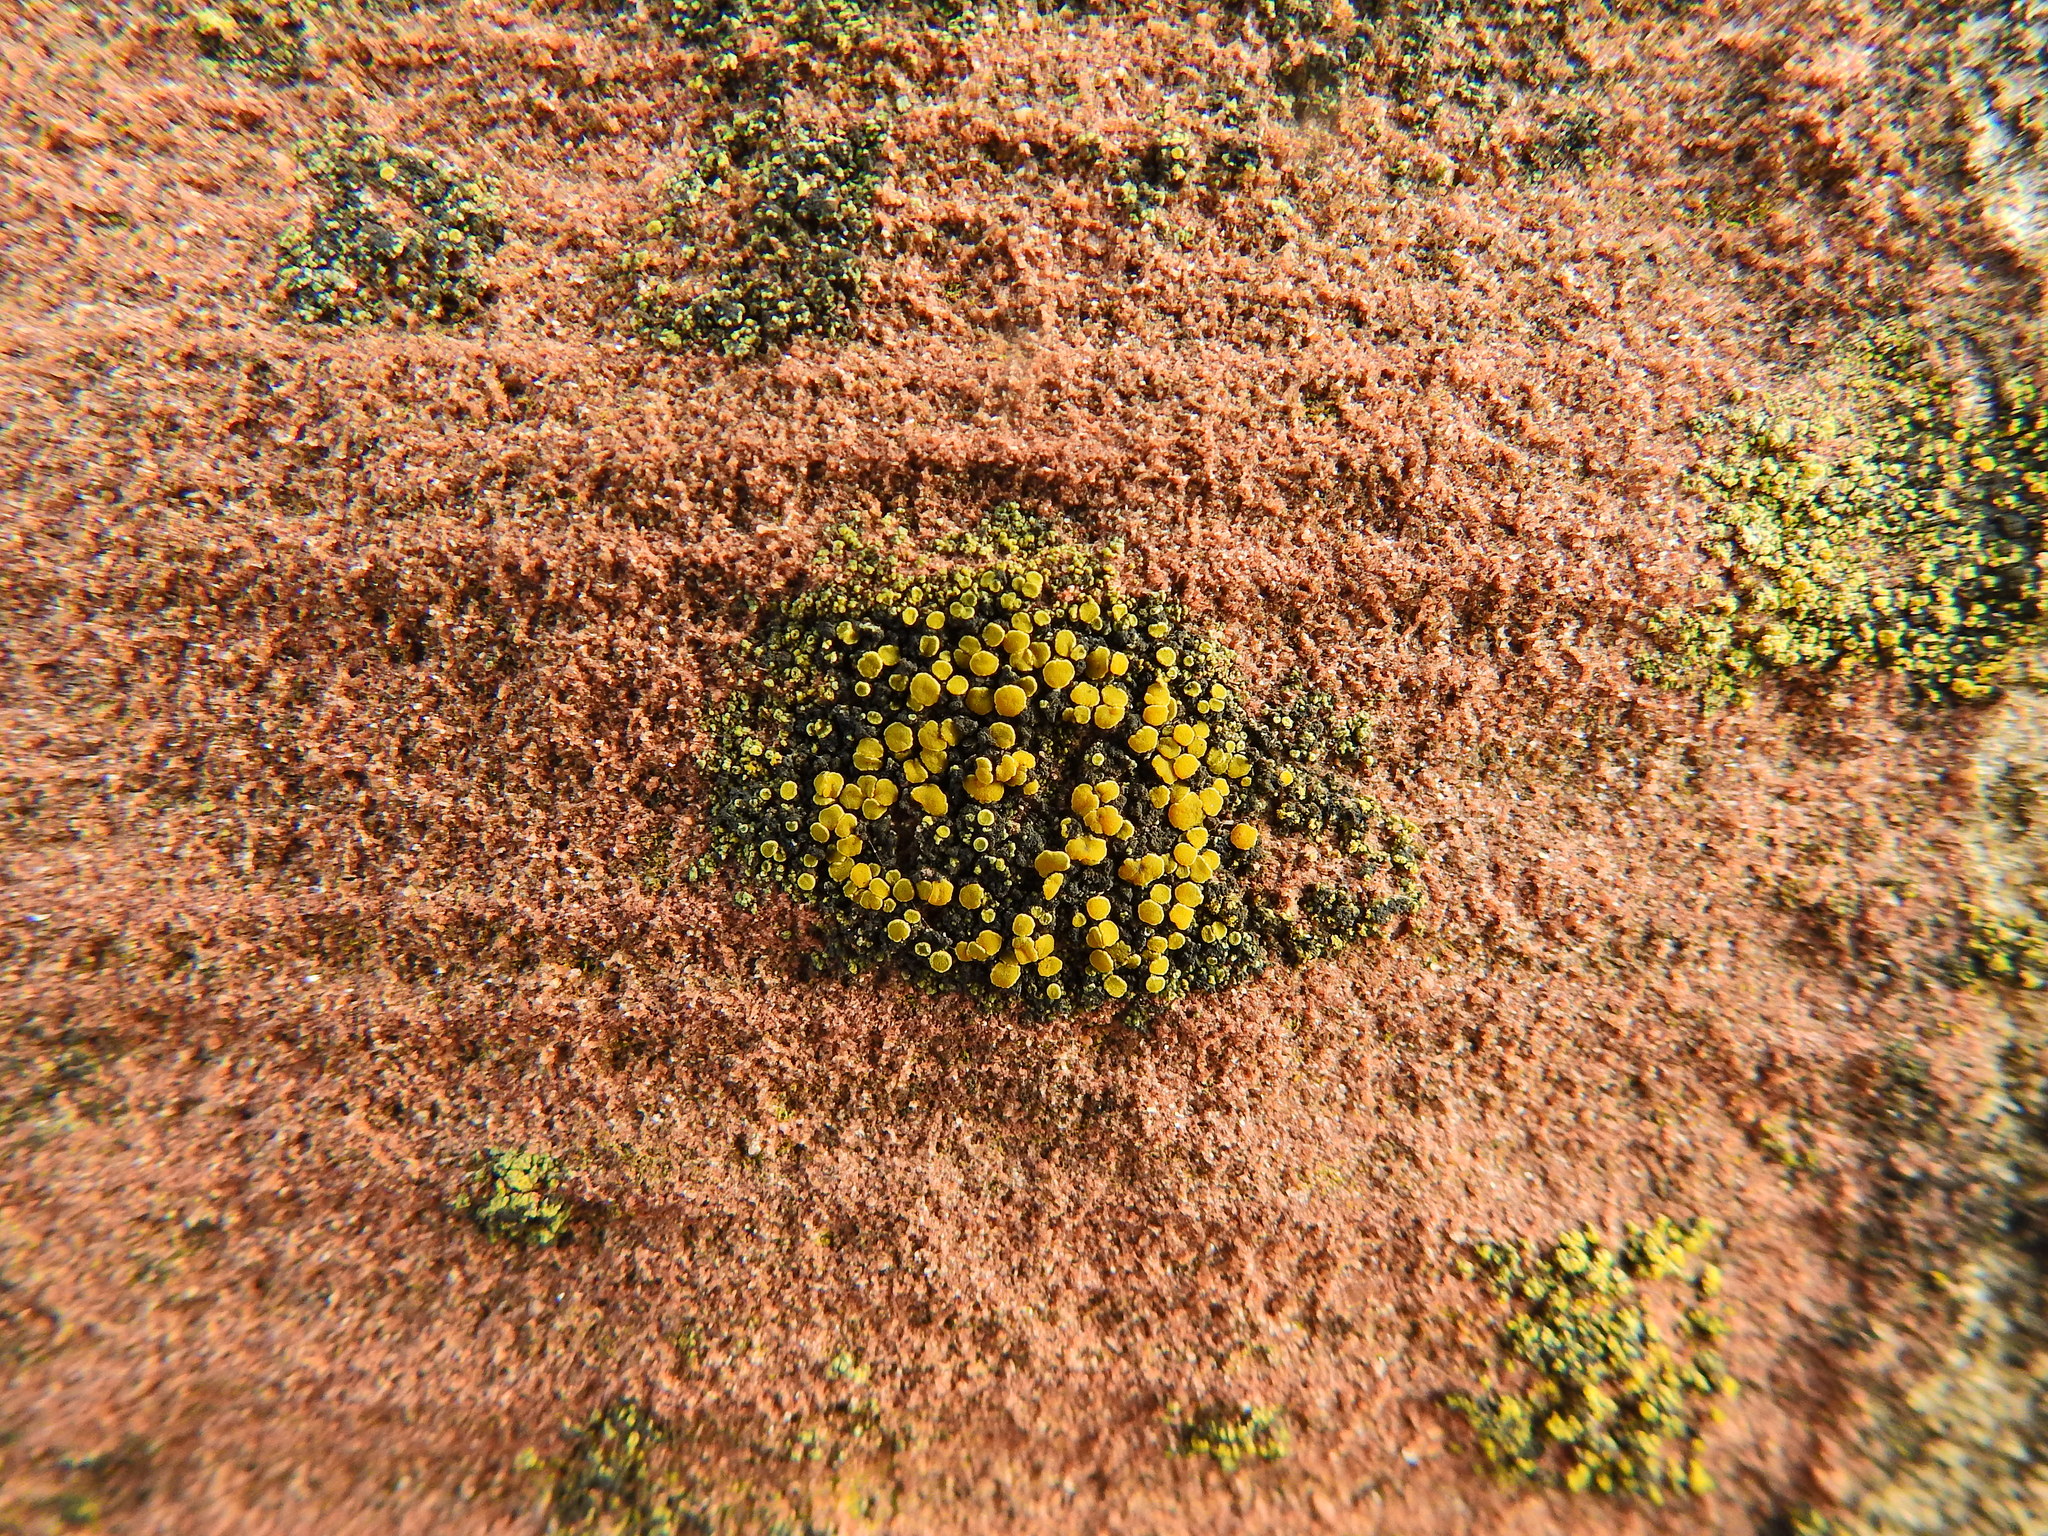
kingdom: Fungi
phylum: Ascomycota
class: Candelariomycetes
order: Candelariales
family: Candelariaceae
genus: Candelariella
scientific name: Candelariella aurella
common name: Hidden goldspeck lichen
